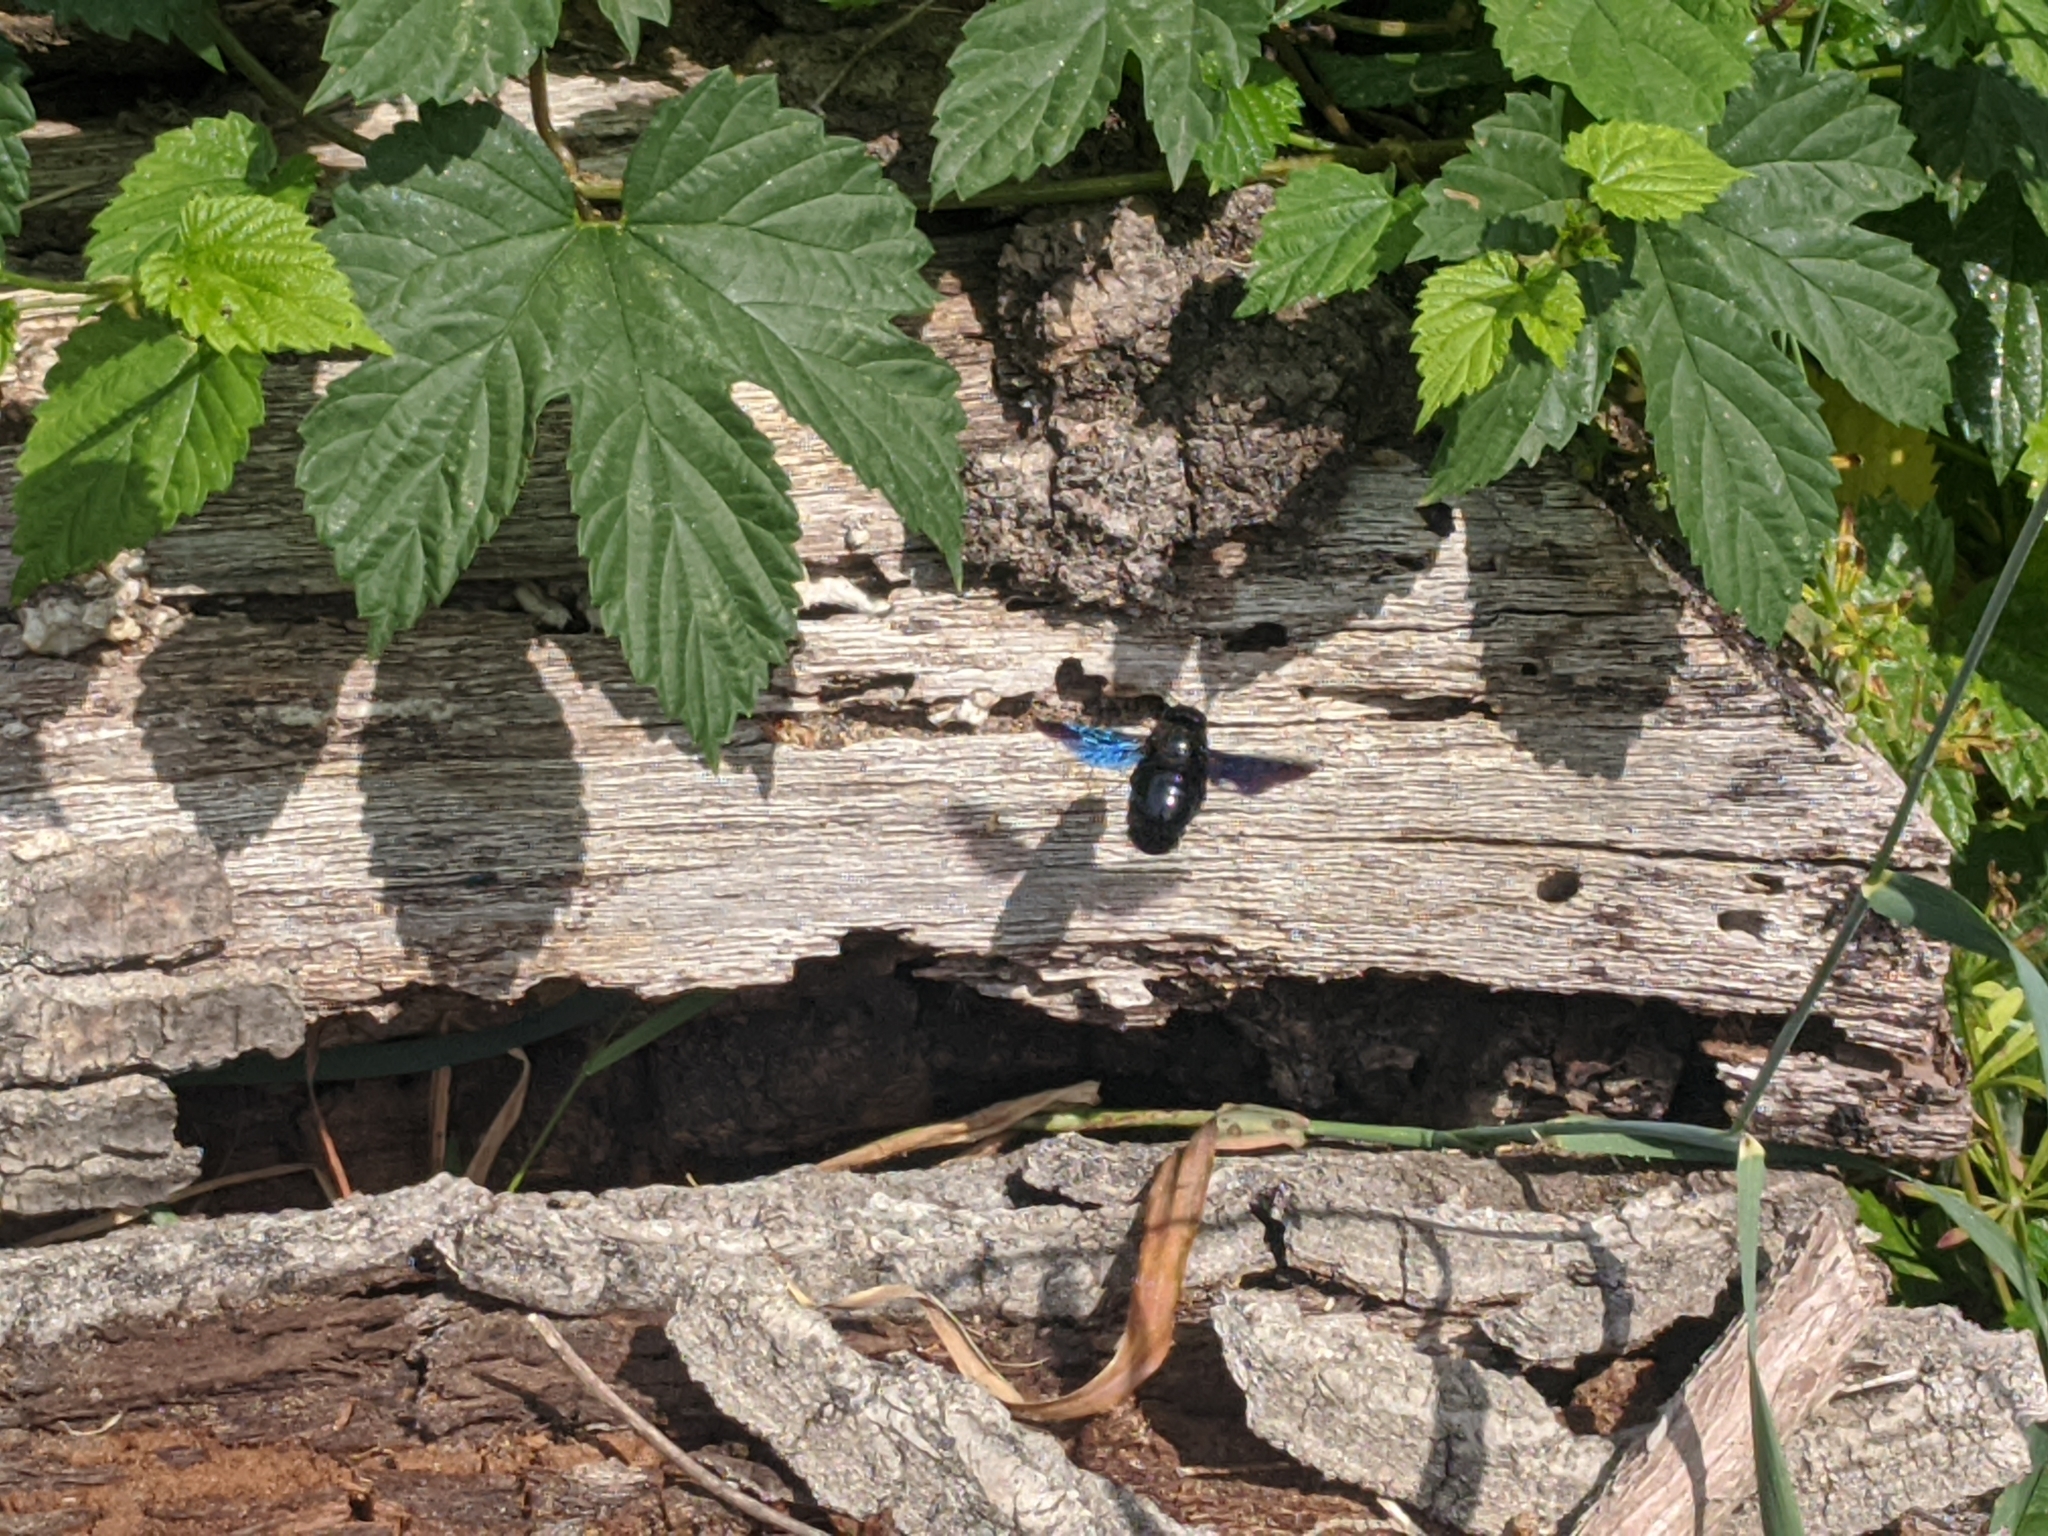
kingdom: Animalia
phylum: Arthropoda
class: Insecta
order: Hymenoptera
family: Apidae
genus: Xylocopa
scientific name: Xylocopa violacea
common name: Violet carpenter bee
